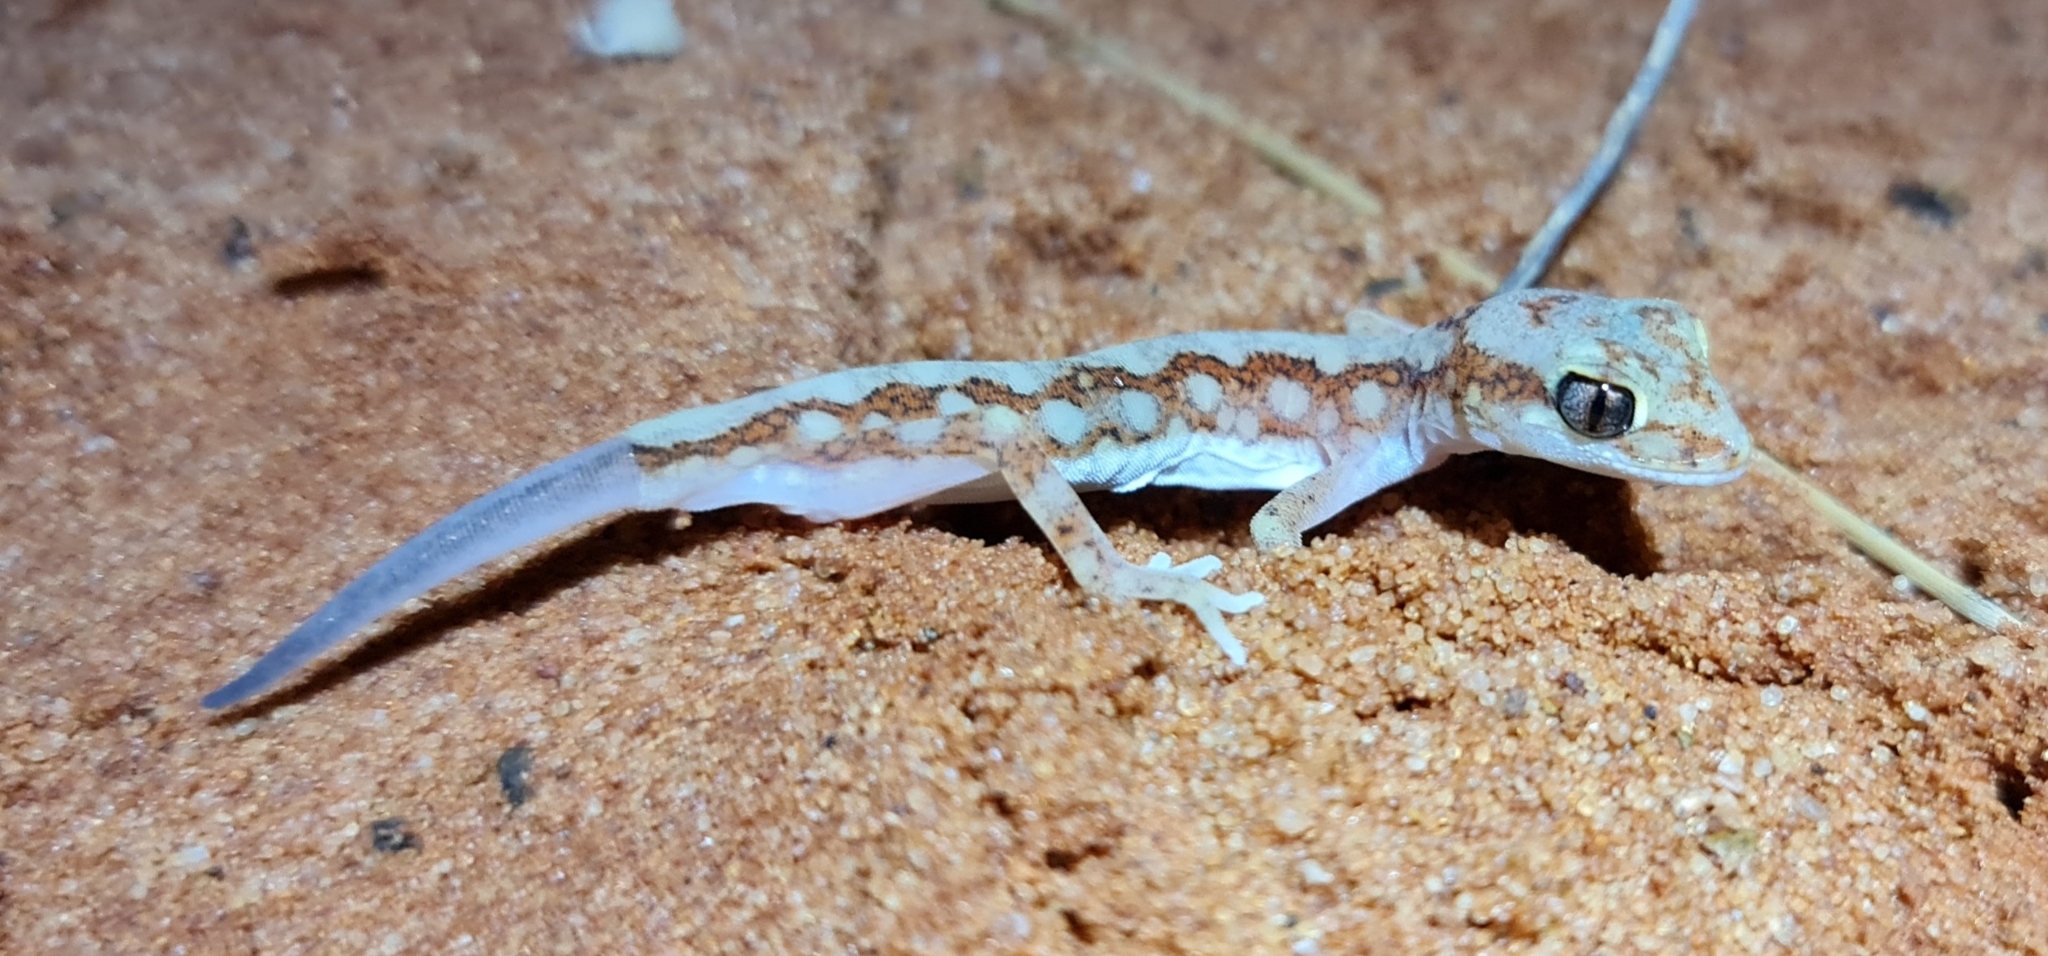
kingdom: Animalia
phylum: Chordata
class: Squamata
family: Diplodactylidae
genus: Lucasium
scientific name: Lucasium damaeum
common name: Beaded gecko
